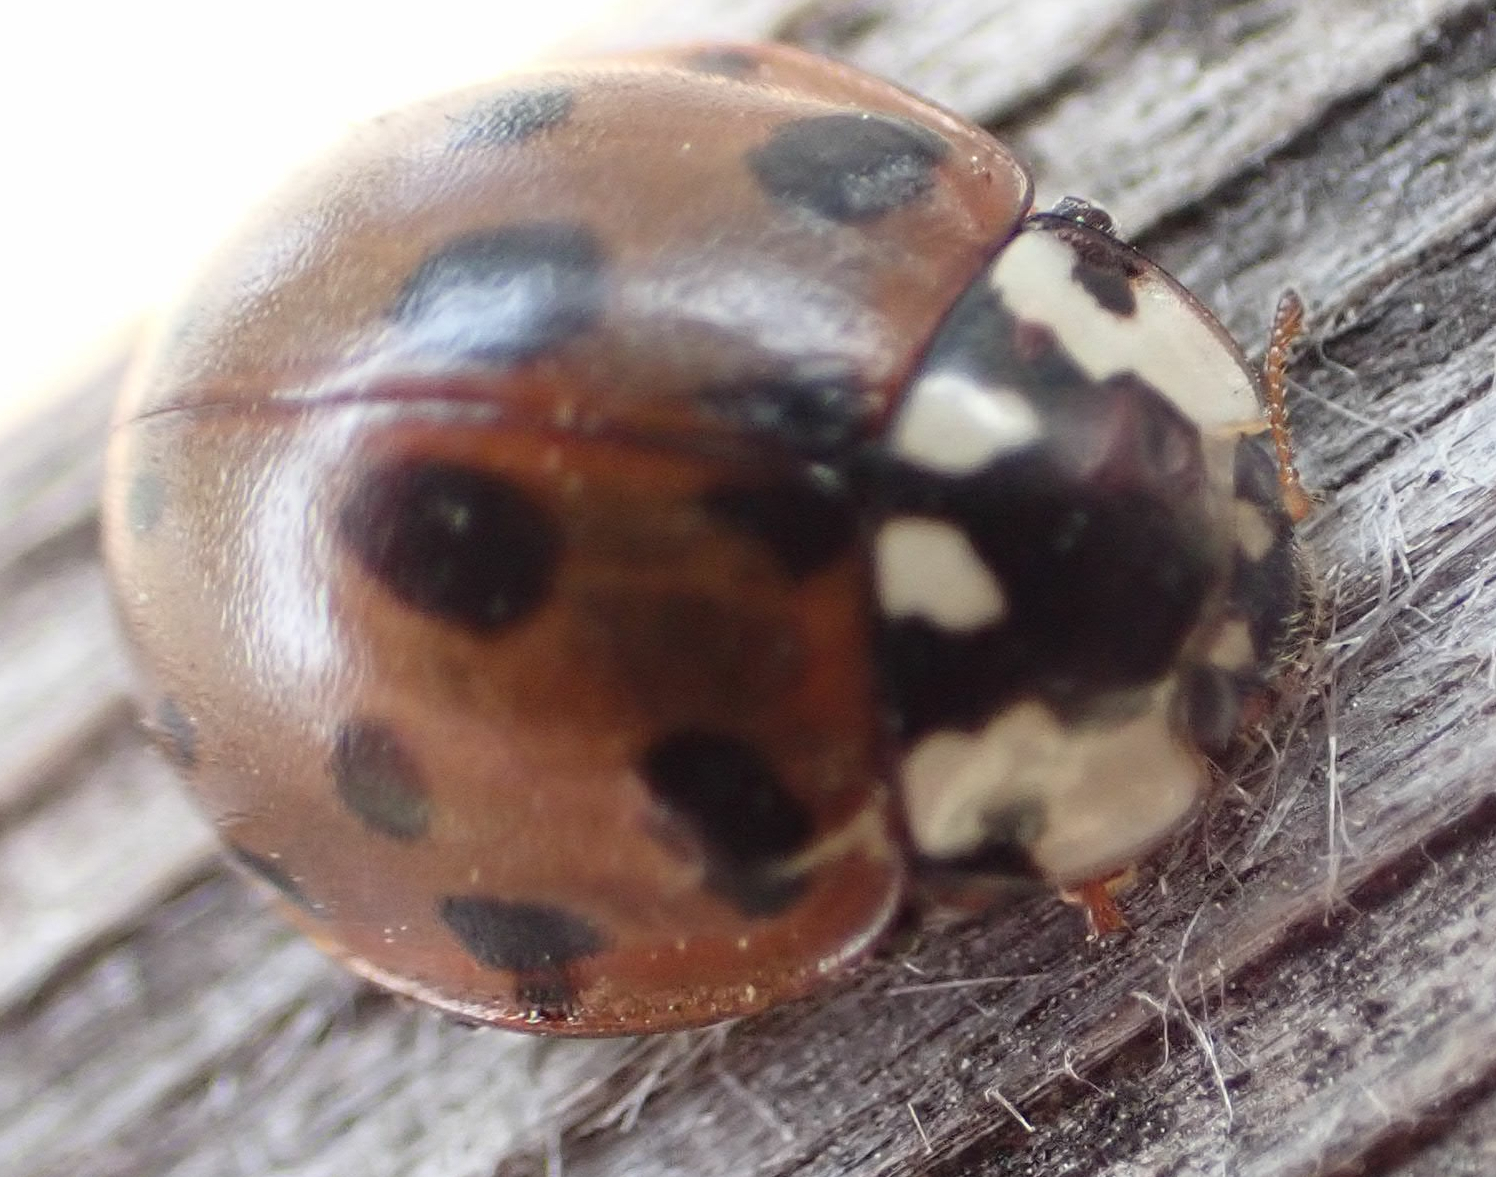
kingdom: Animalia
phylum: Arthropoda
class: Insecta
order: Coleoptera
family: Coccinellidae
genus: Anatis
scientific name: Anatis mali
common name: Eye-spotted lady beetle
